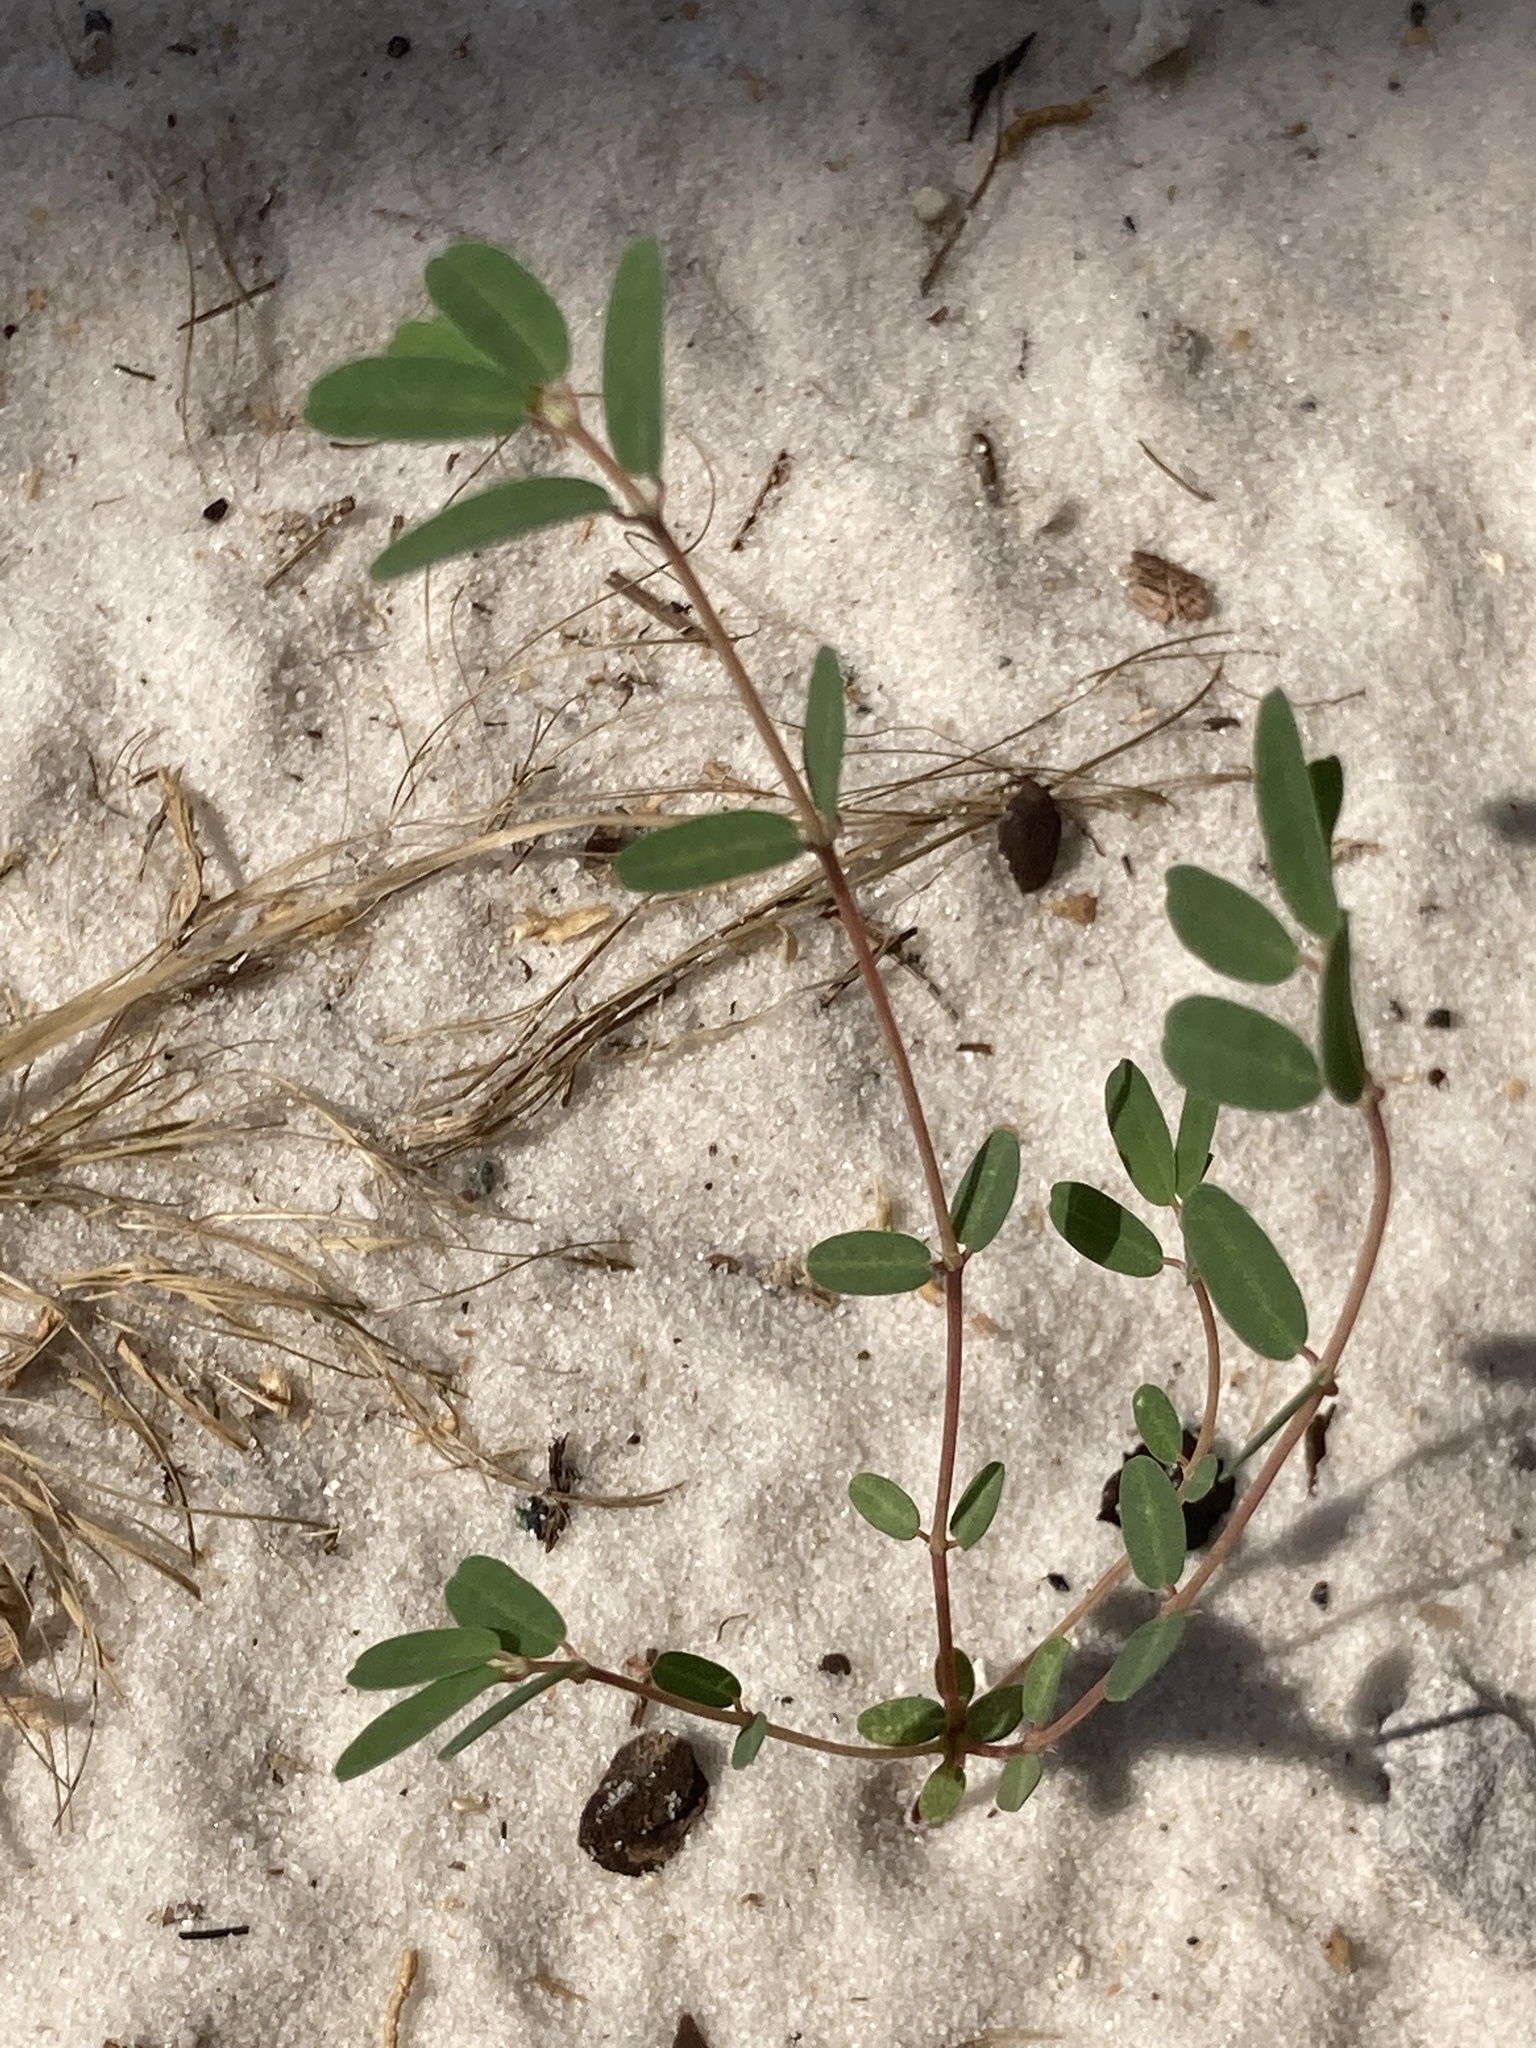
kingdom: Plantae
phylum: Tracheophyta
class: Magnoliopsida
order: Malpighiales
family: Euphorbiaceae
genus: Euphorbia
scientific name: Euphorbia bombensis
